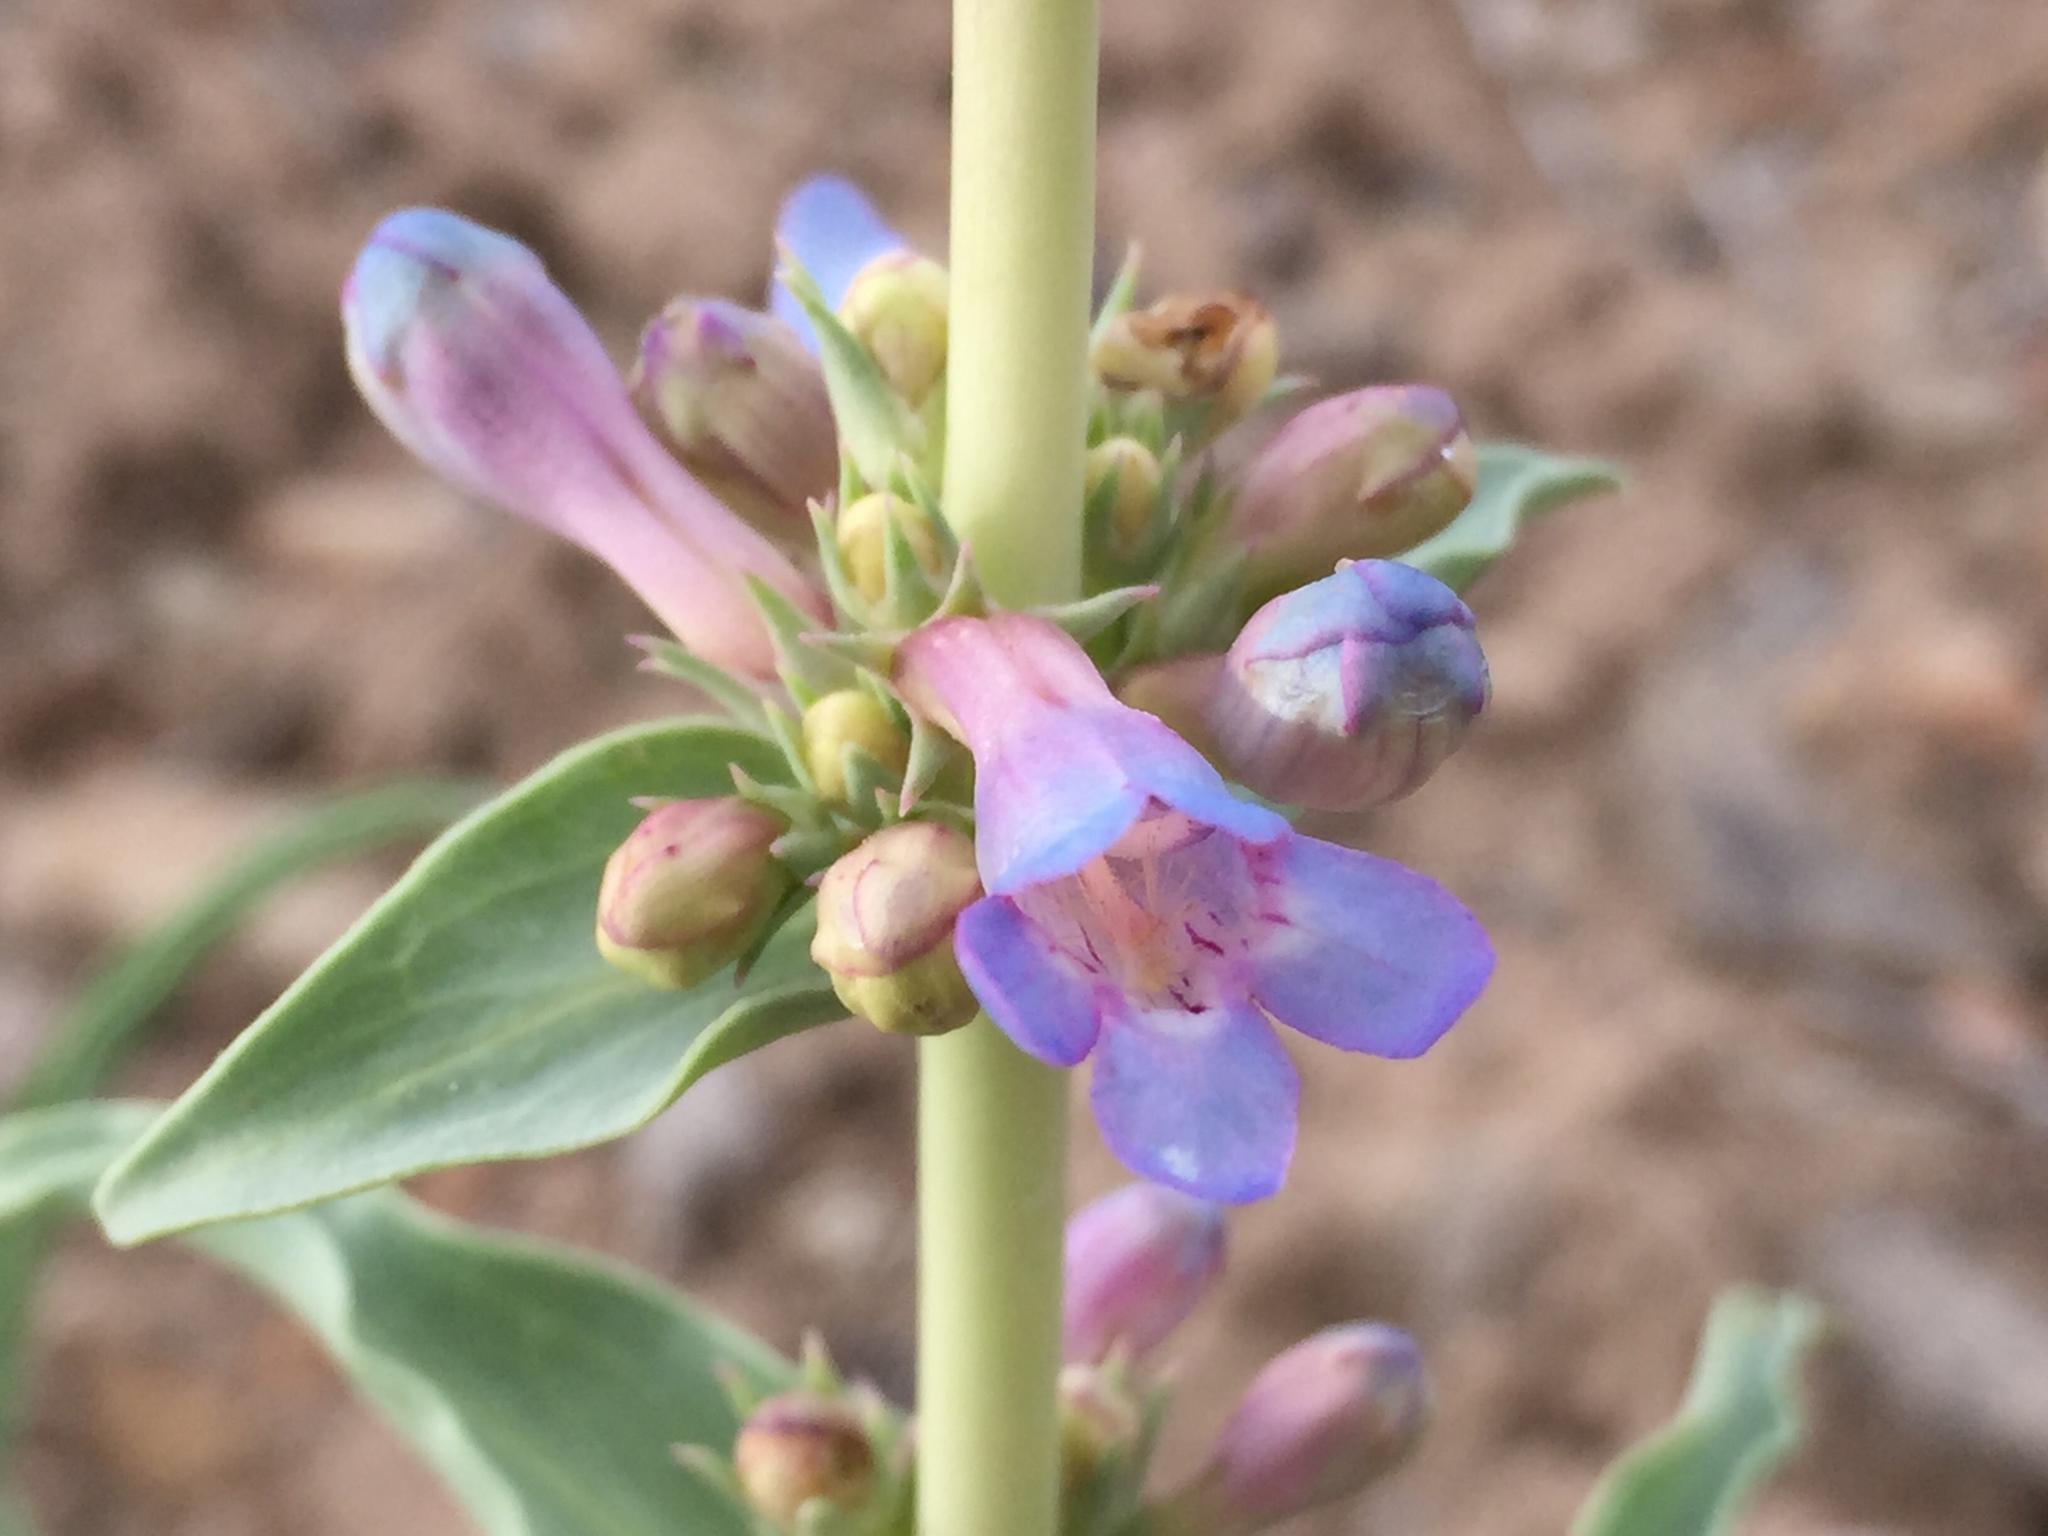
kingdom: Plantae
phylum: Tracheophyta
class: Magnoliopsida
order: Lamiales
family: Plantaginaceae
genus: Penstemon
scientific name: Penstemon angustifolius
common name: Narrow beardtongue
